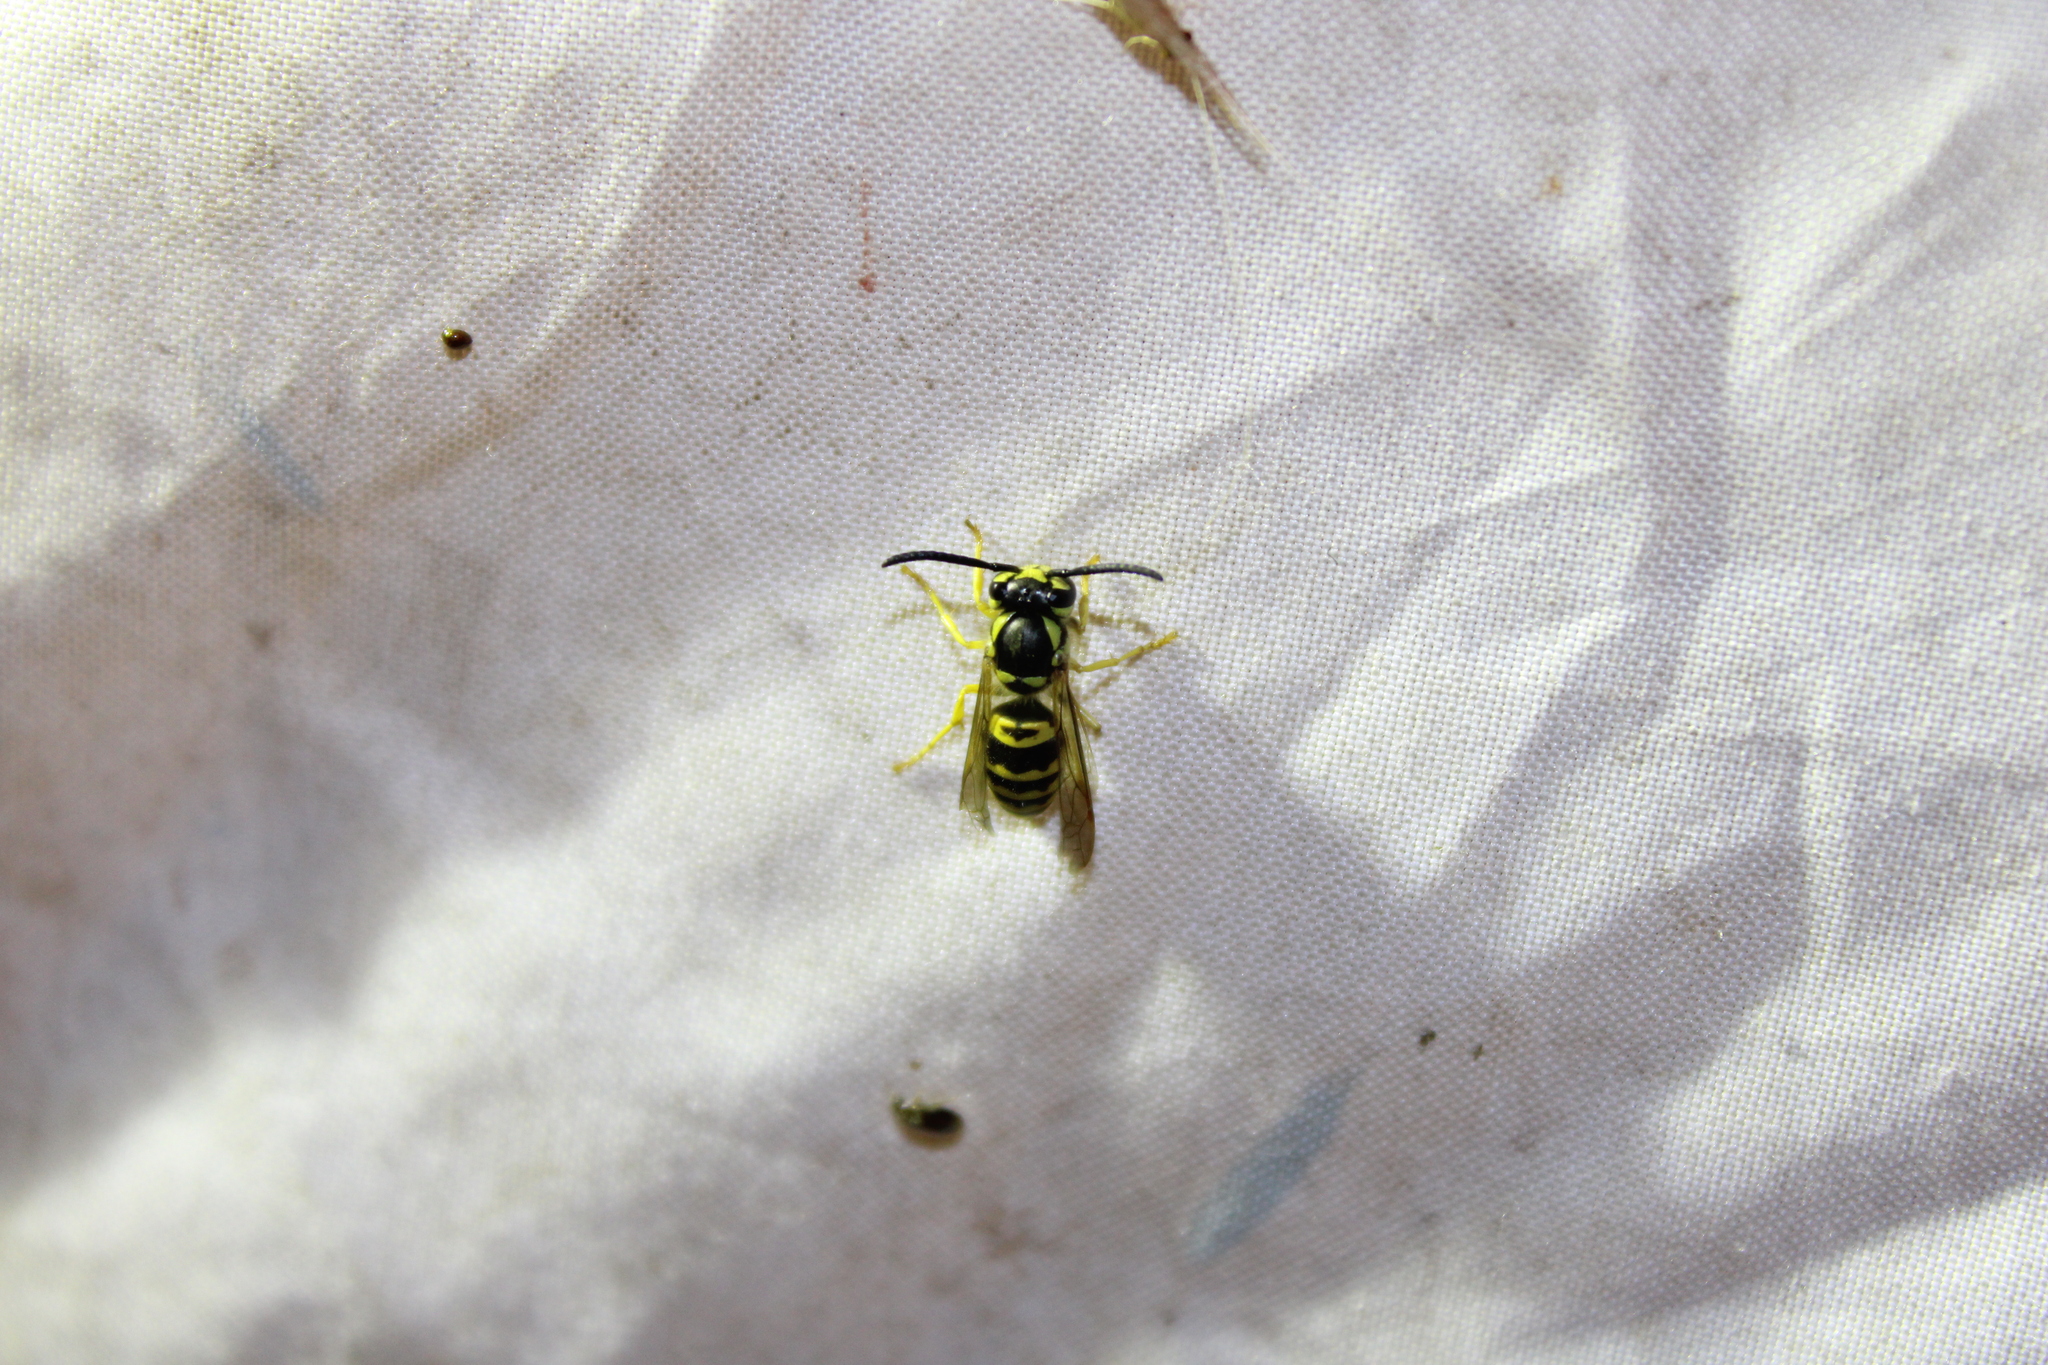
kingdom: Animalia
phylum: Arthropoda
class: Insecta
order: Hymenoptera
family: Vespidae
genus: Vespula
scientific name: Vespula maculifrons
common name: Eastern yellowjacket
